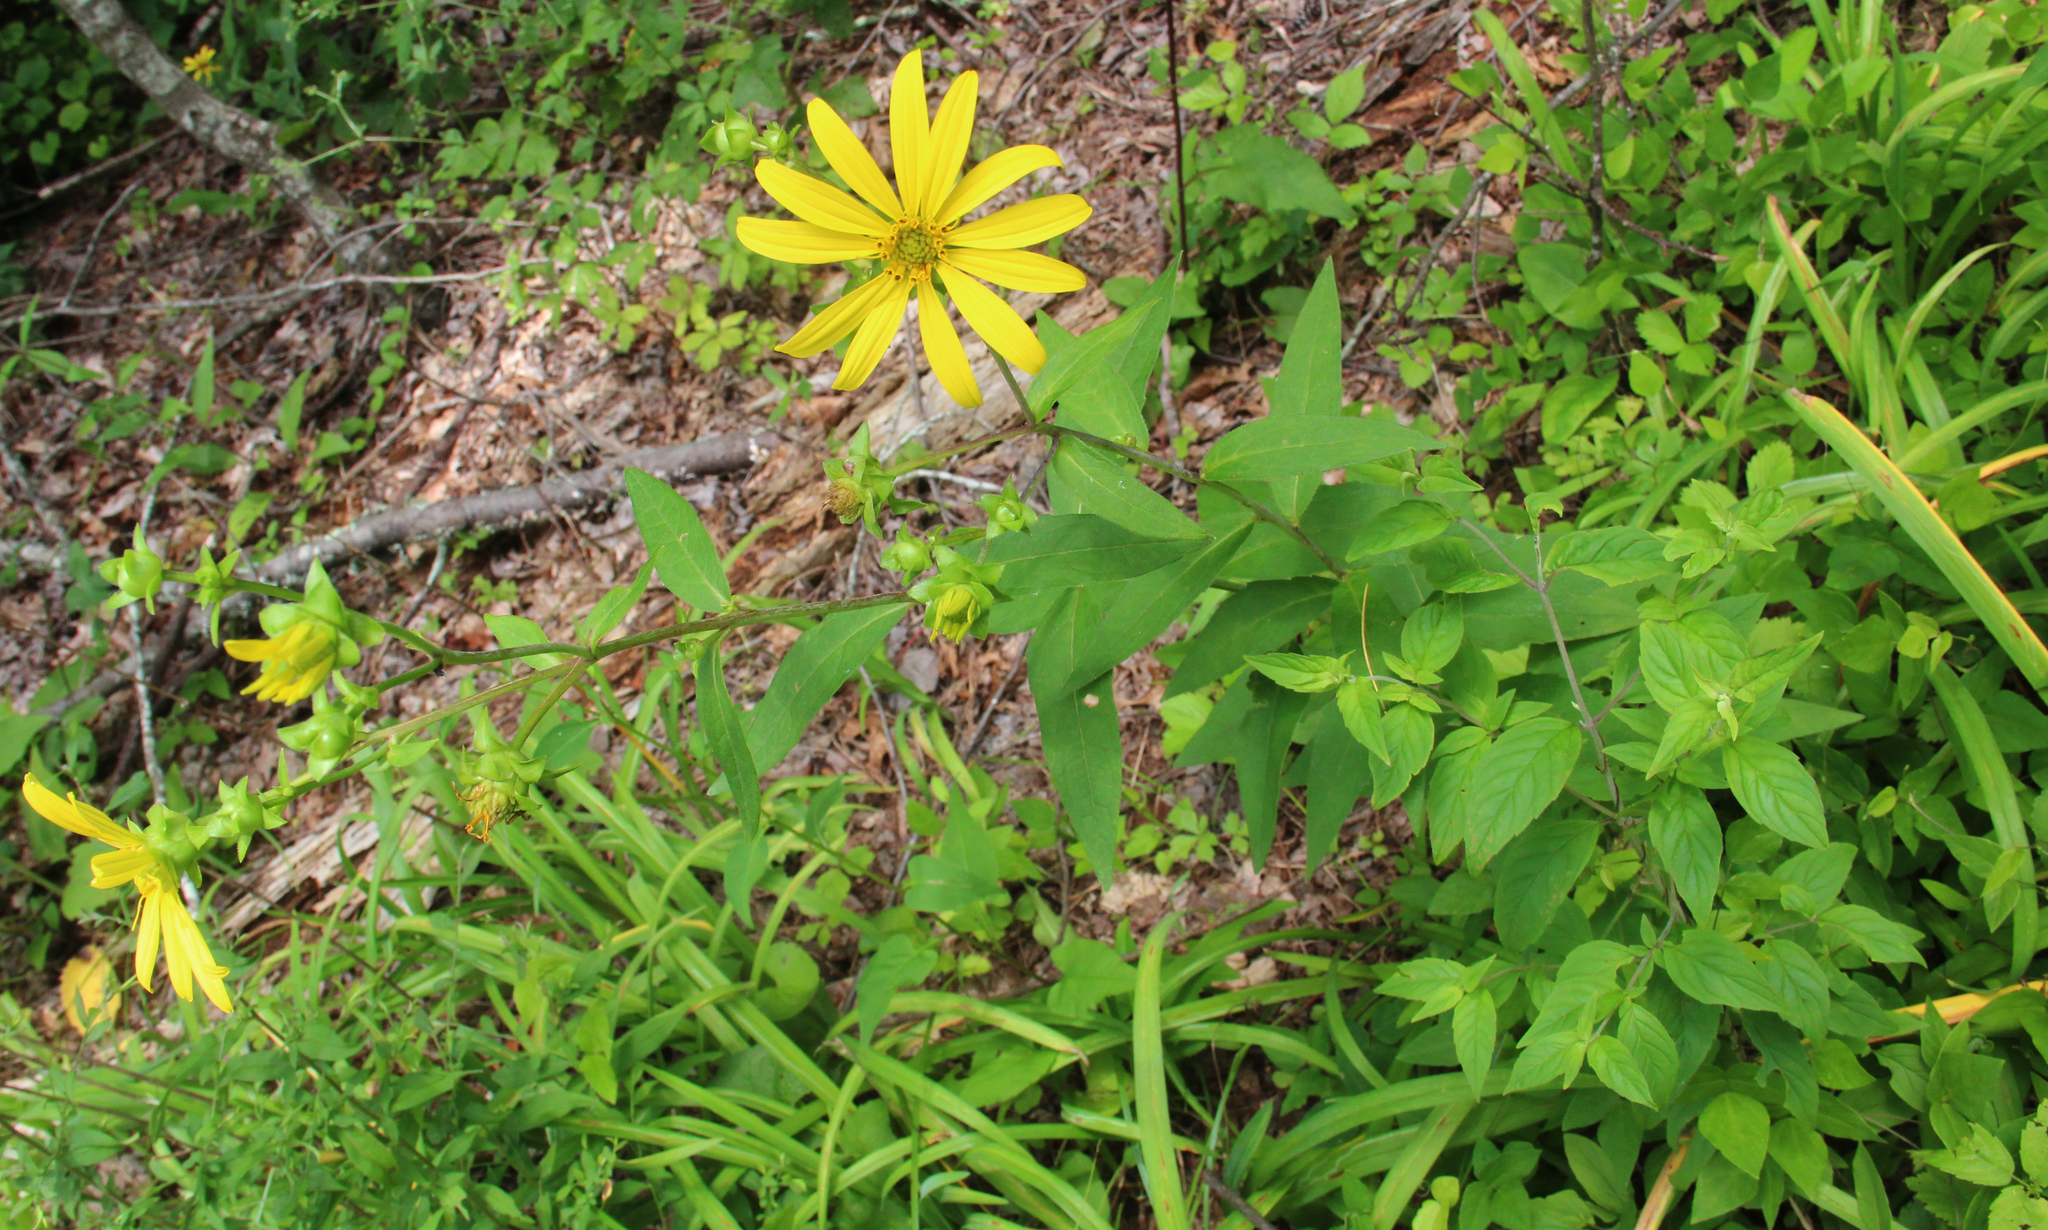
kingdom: Plantae
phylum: Tracheophyta
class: Magnoliopsida
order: Asterales
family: Asteraceae
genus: Silphium
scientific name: Silphium asteriscus
